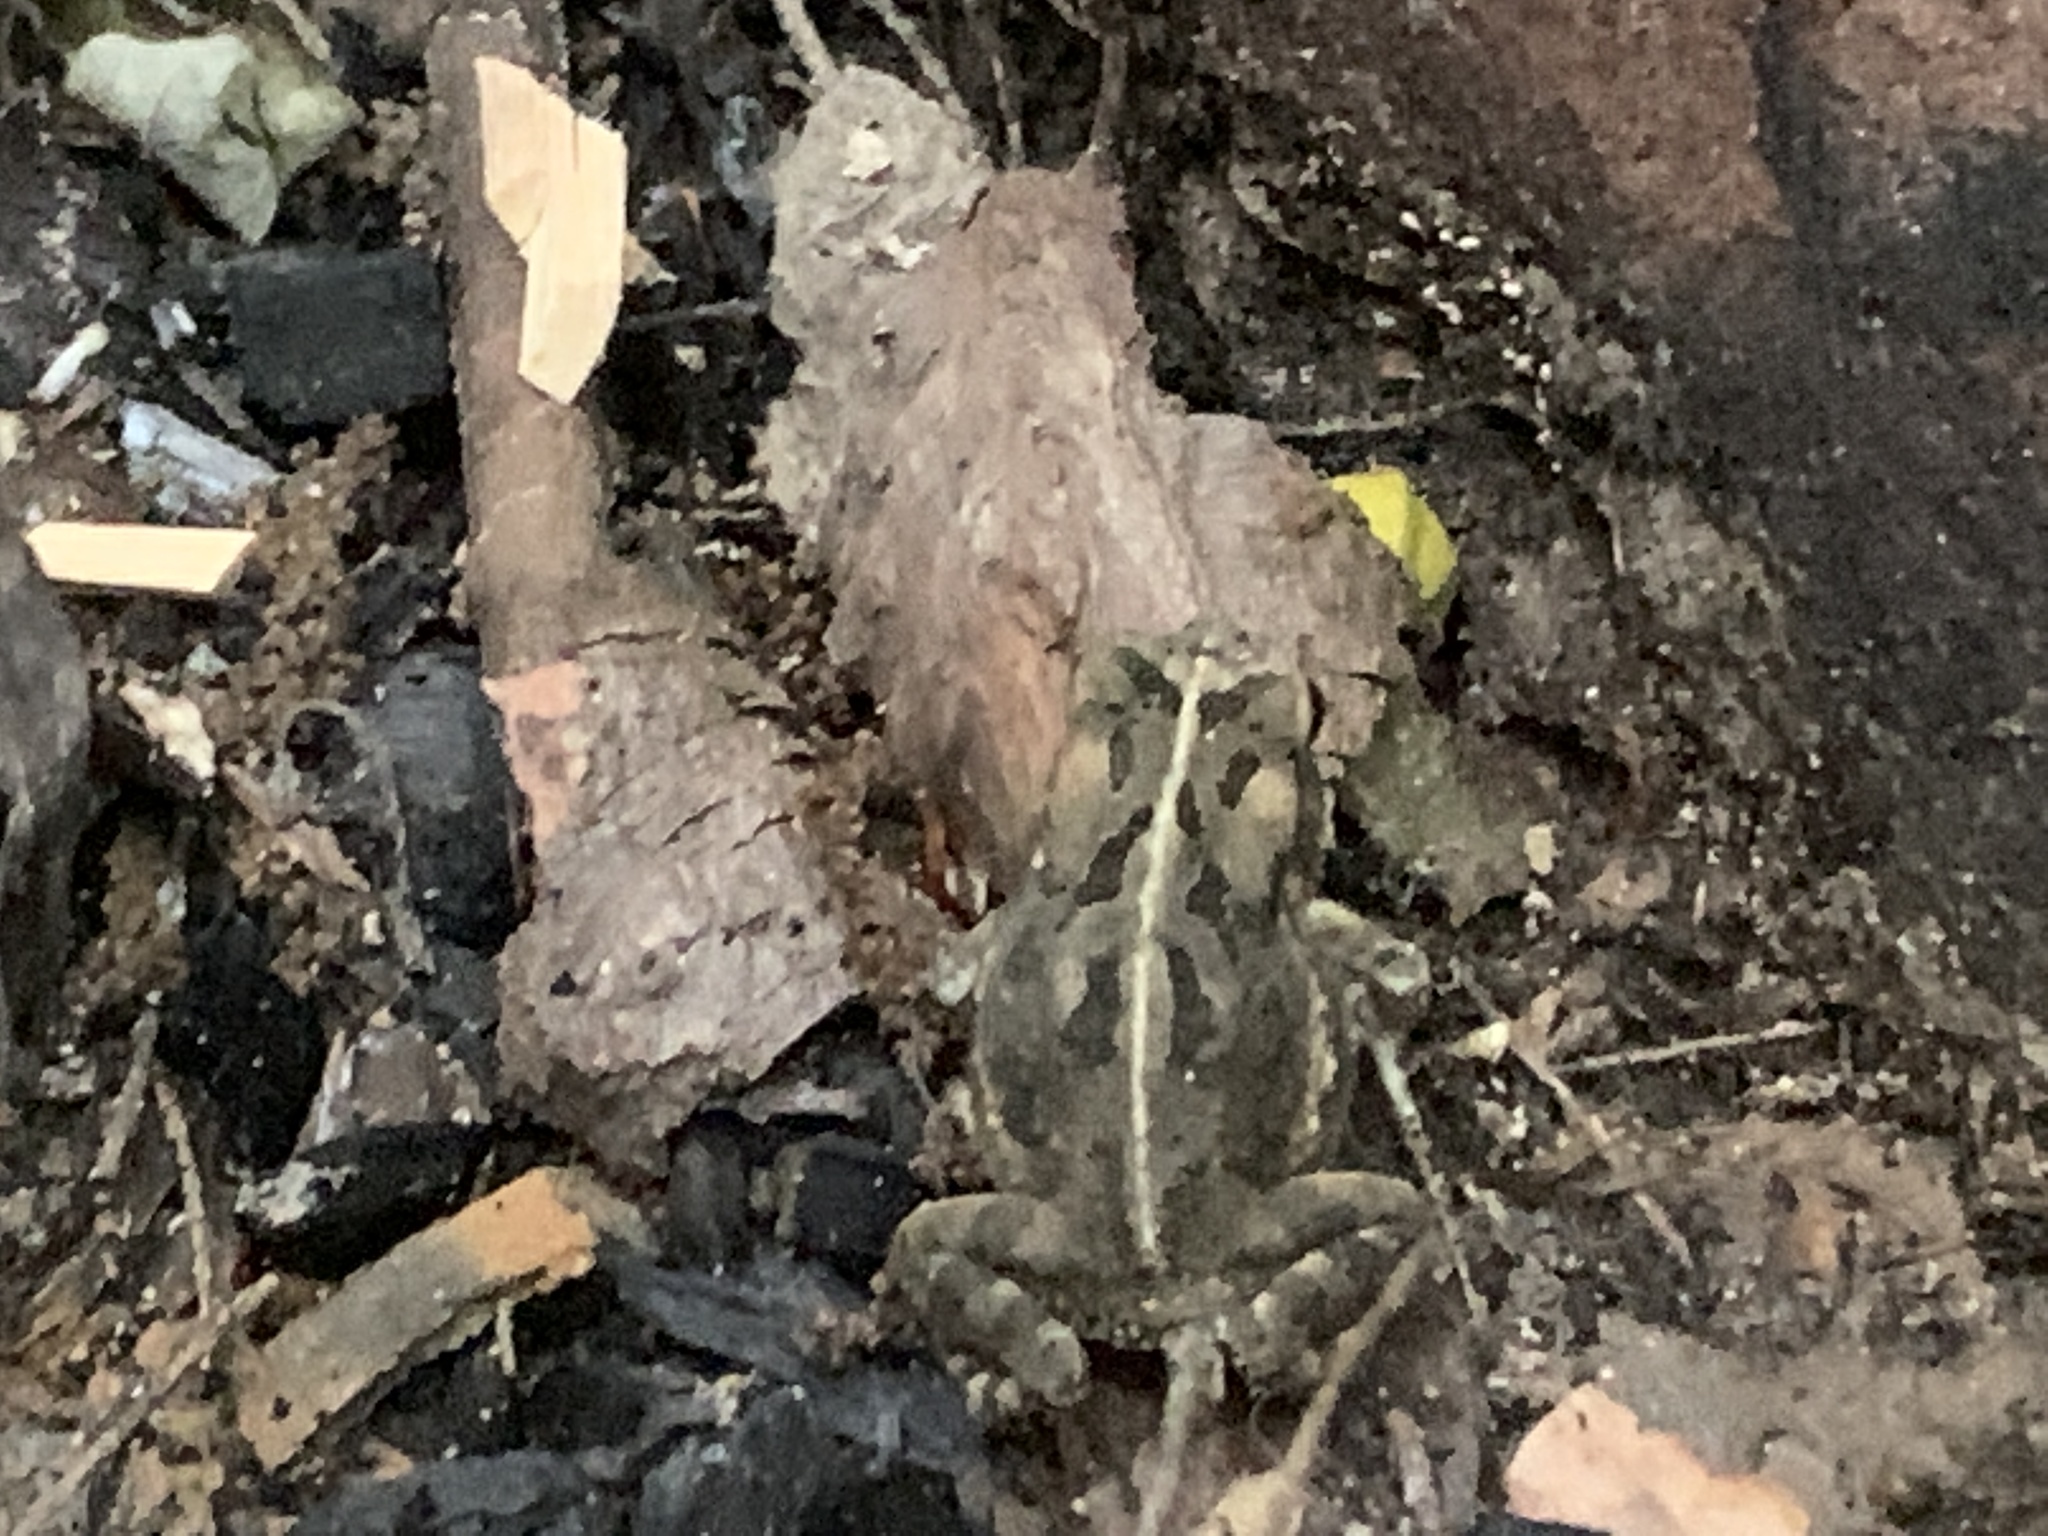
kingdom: Animalia
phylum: Chordata
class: Amphibia
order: Anura
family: Bufonidae
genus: Anaxyrus
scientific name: Anaxyrus fowleri
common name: Fowler's toad
